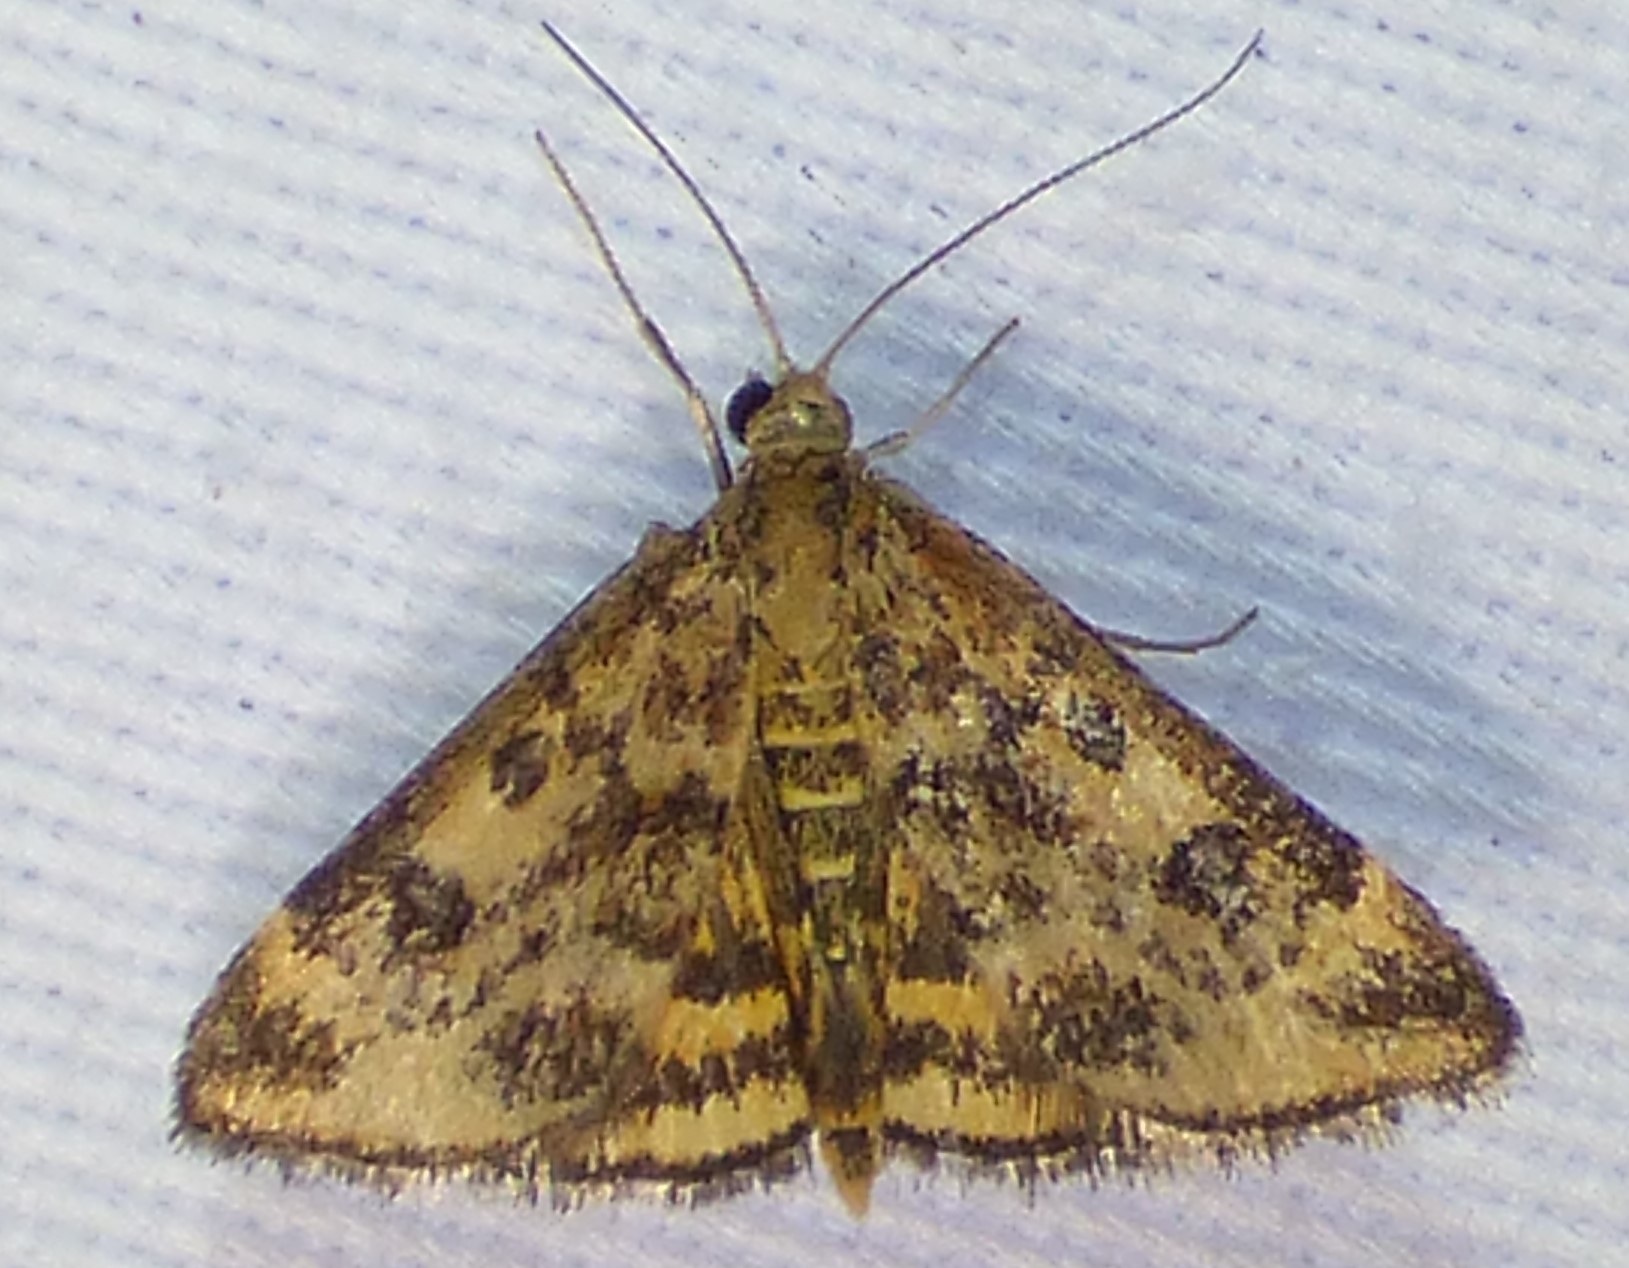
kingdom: Animalia
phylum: Arthropoda
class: Insecta
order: Lepidoptera
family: Crambidae
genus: Pyrausta
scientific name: Pyrausta subsequalis
